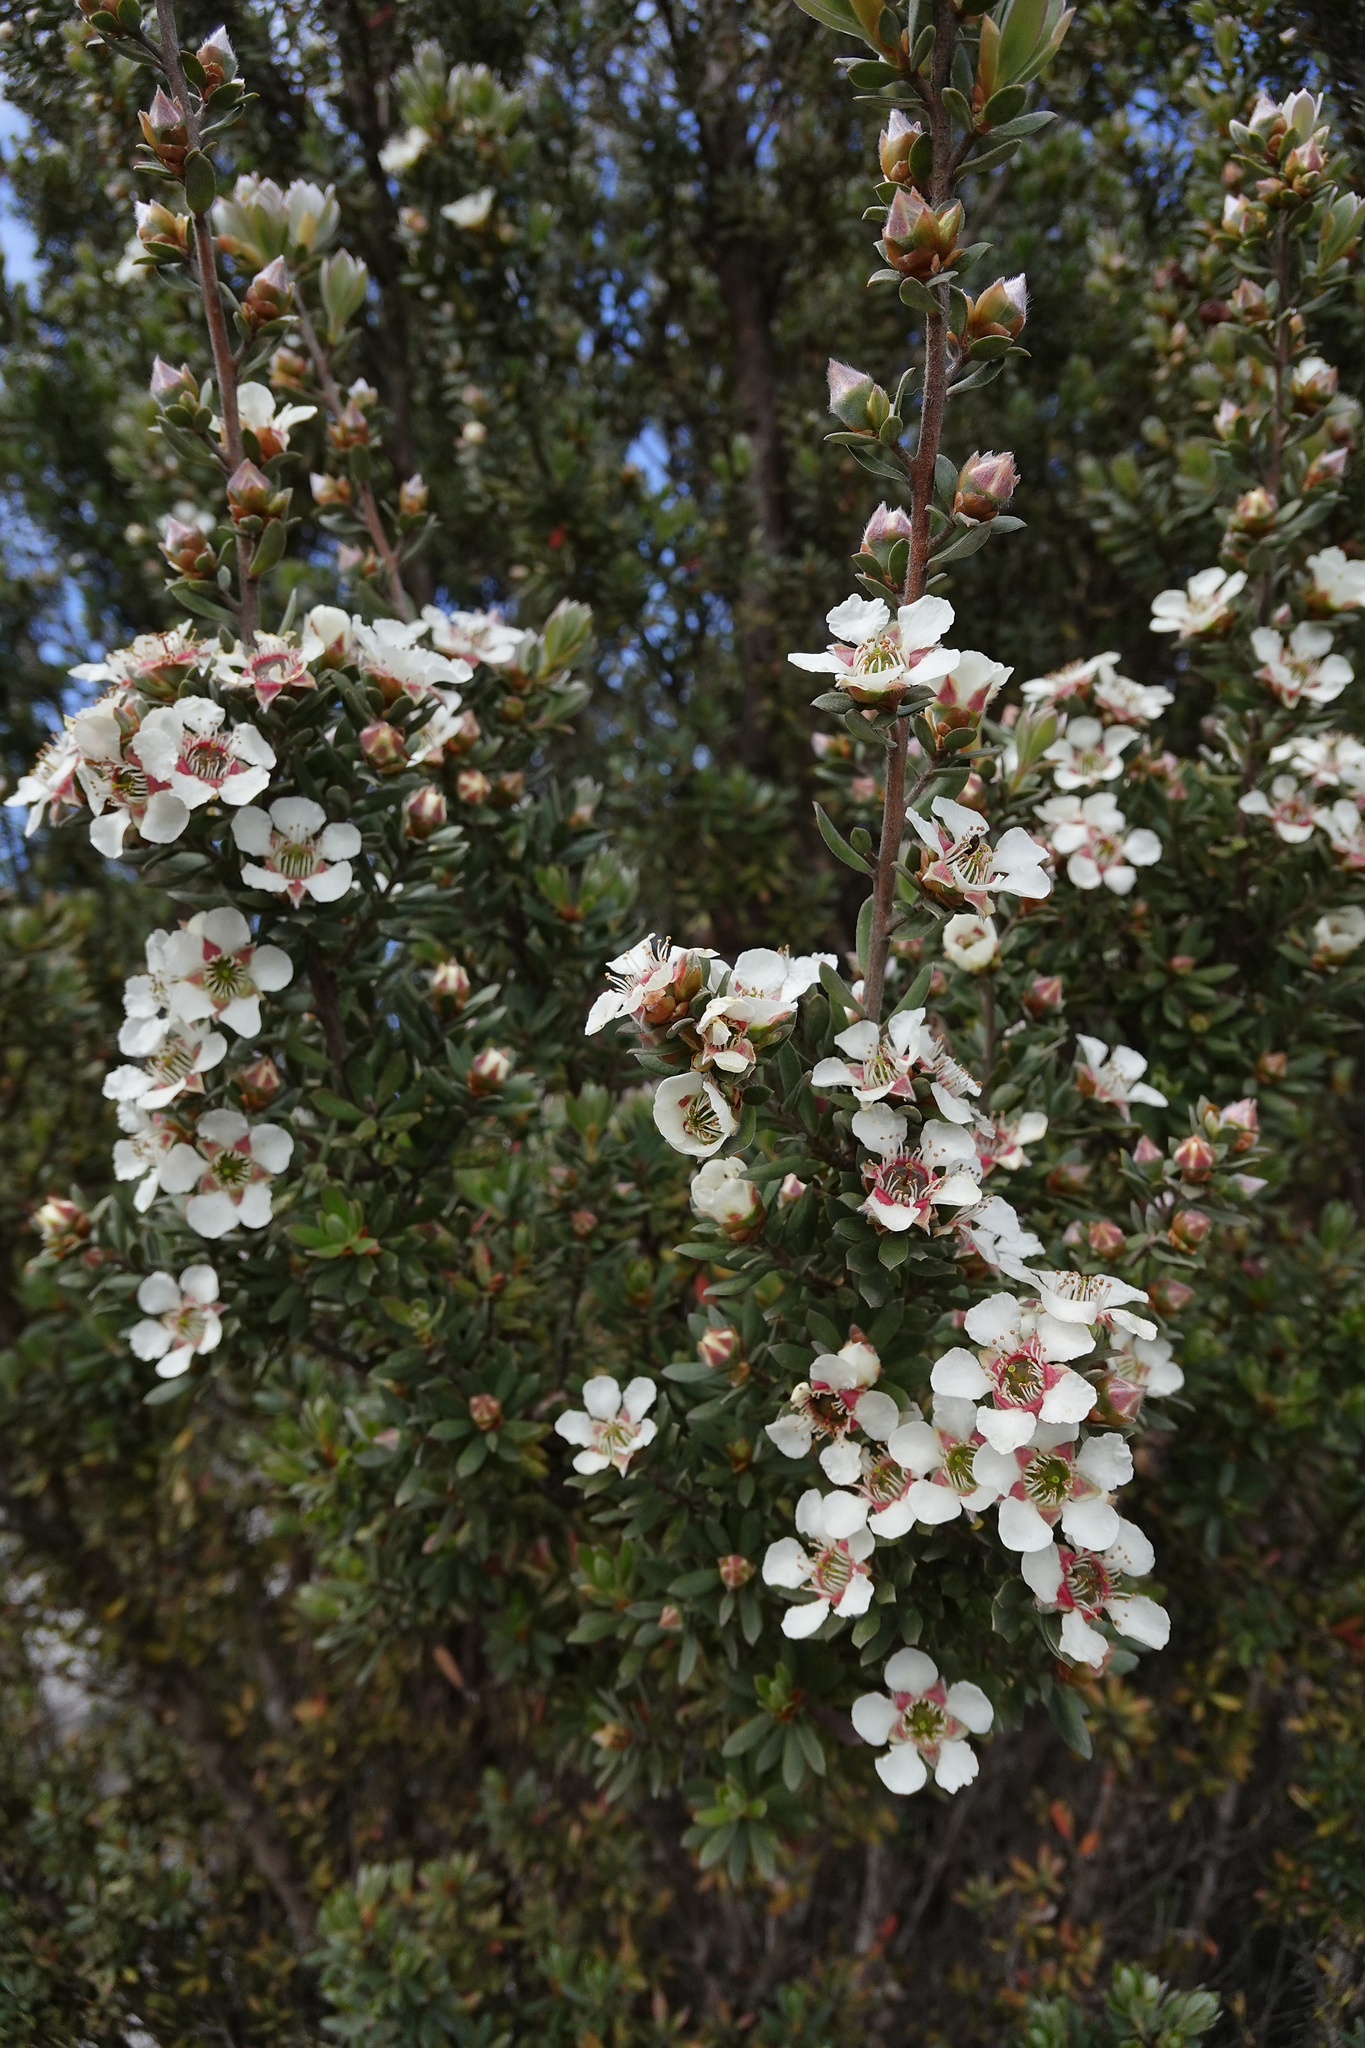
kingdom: Plantae
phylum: Tracheophyta
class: Magnoliopsida
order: Myrtales
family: Myrtaceae
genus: Leptospermum
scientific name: Leptospermum lanigerum
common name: Woolly tea-tree
